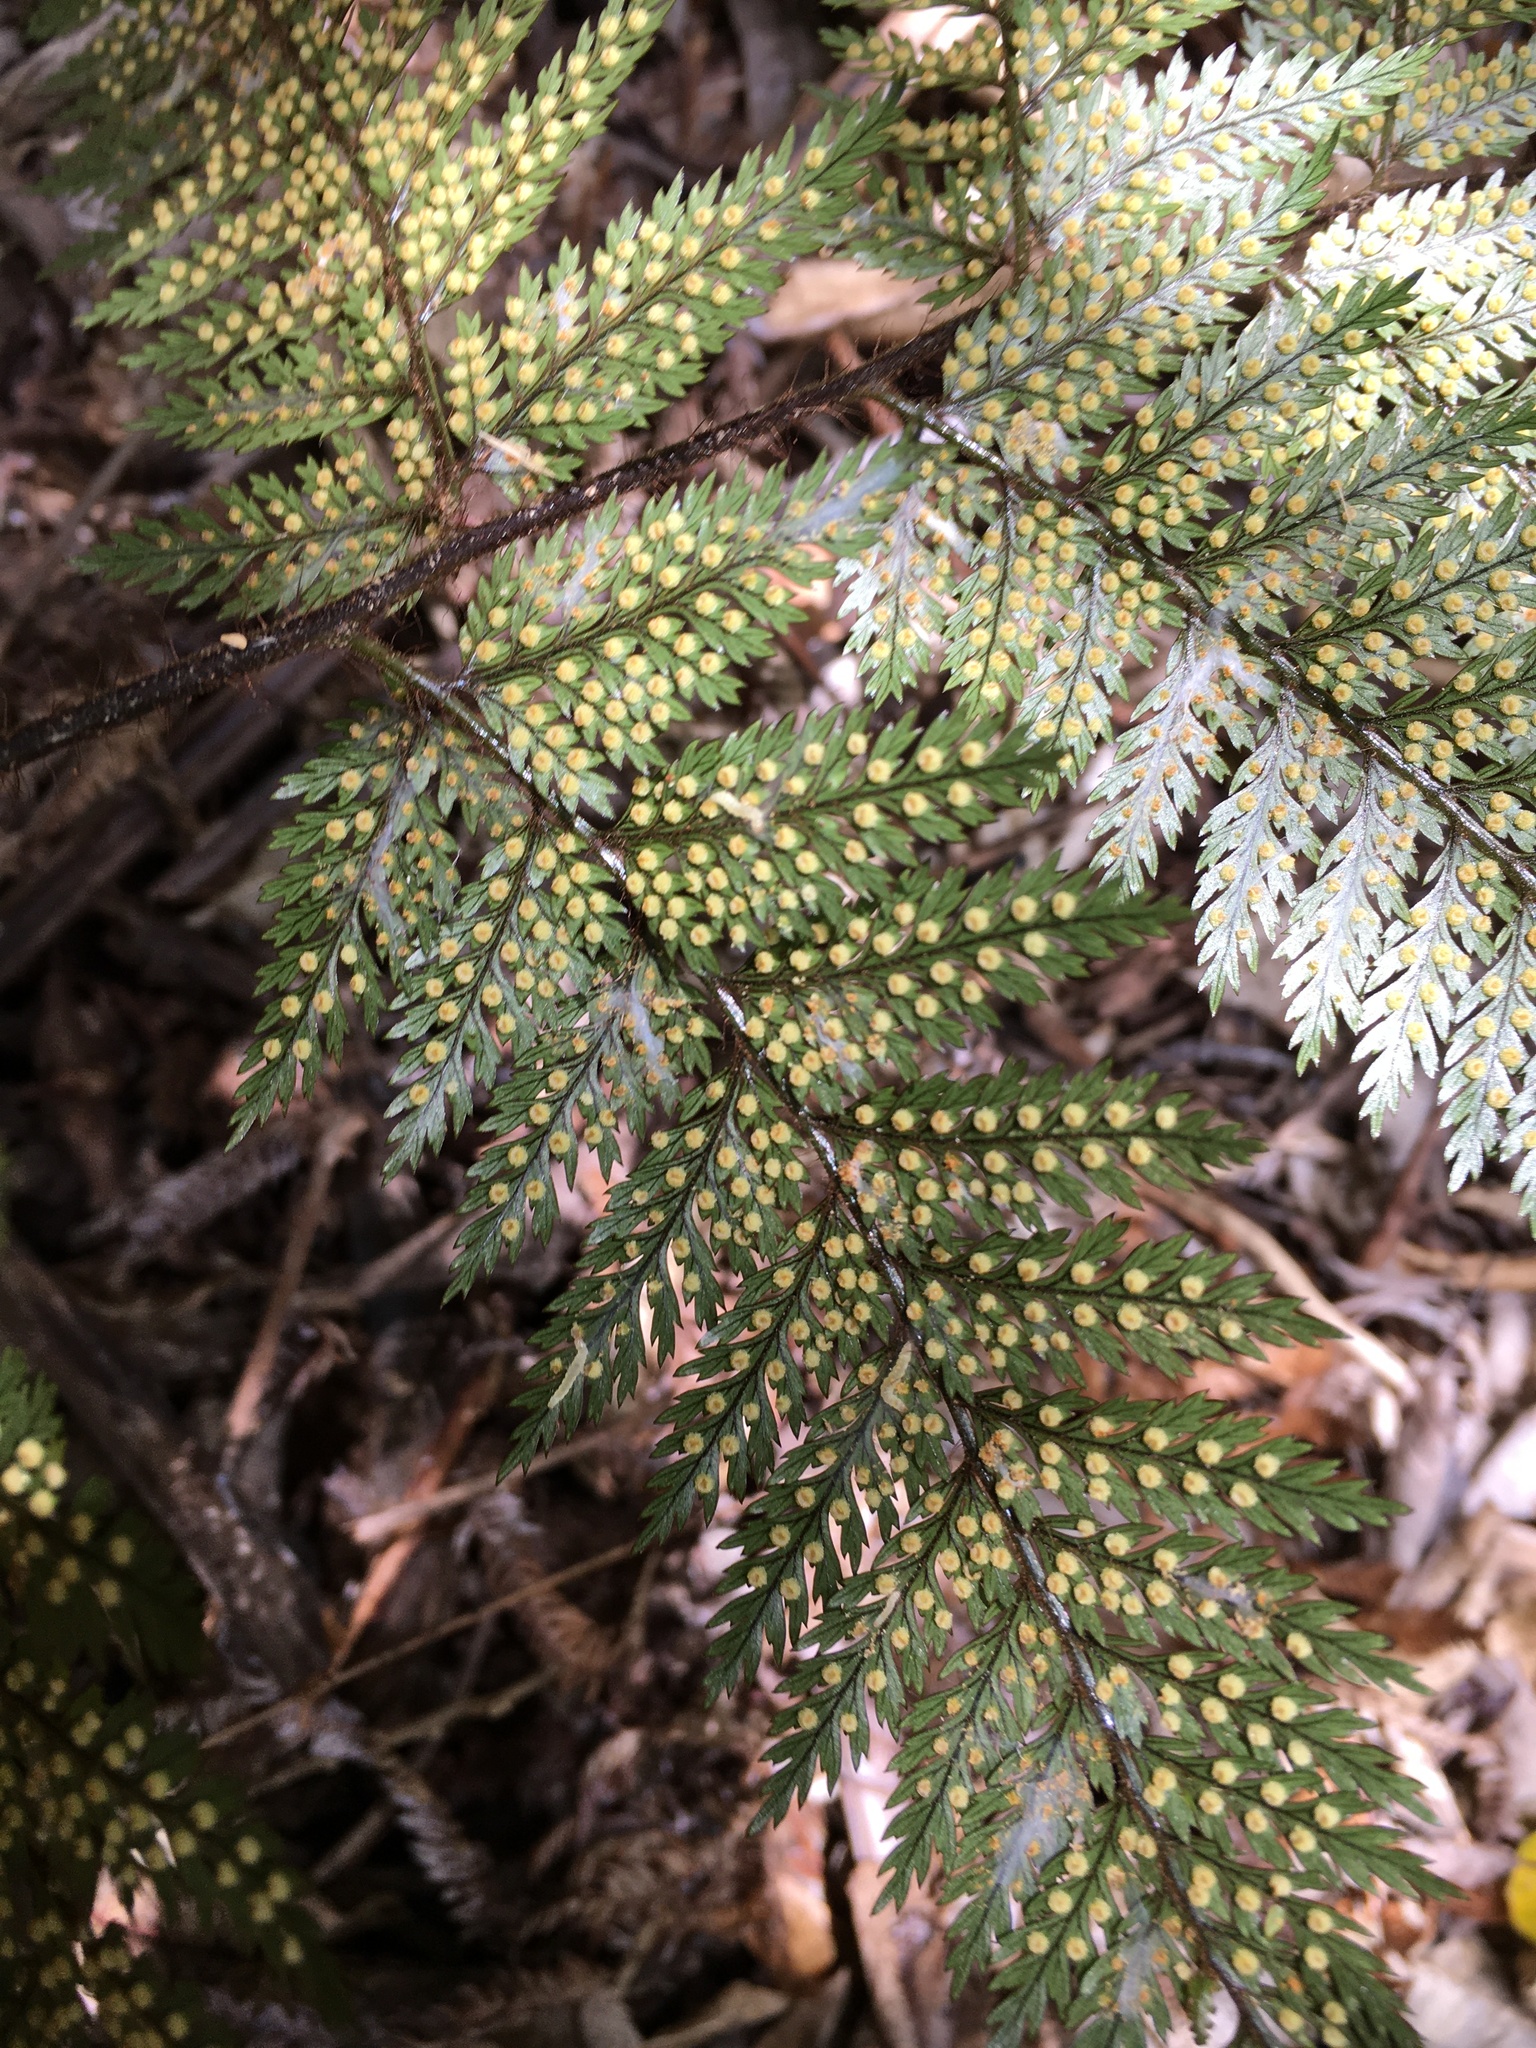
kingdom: Plantae
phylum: Tracheophyta
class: Polypodiopsida
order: Polypodiales
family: Dryopteridaceae
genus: Lastreopsis
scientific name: Lastreopsis hispida
